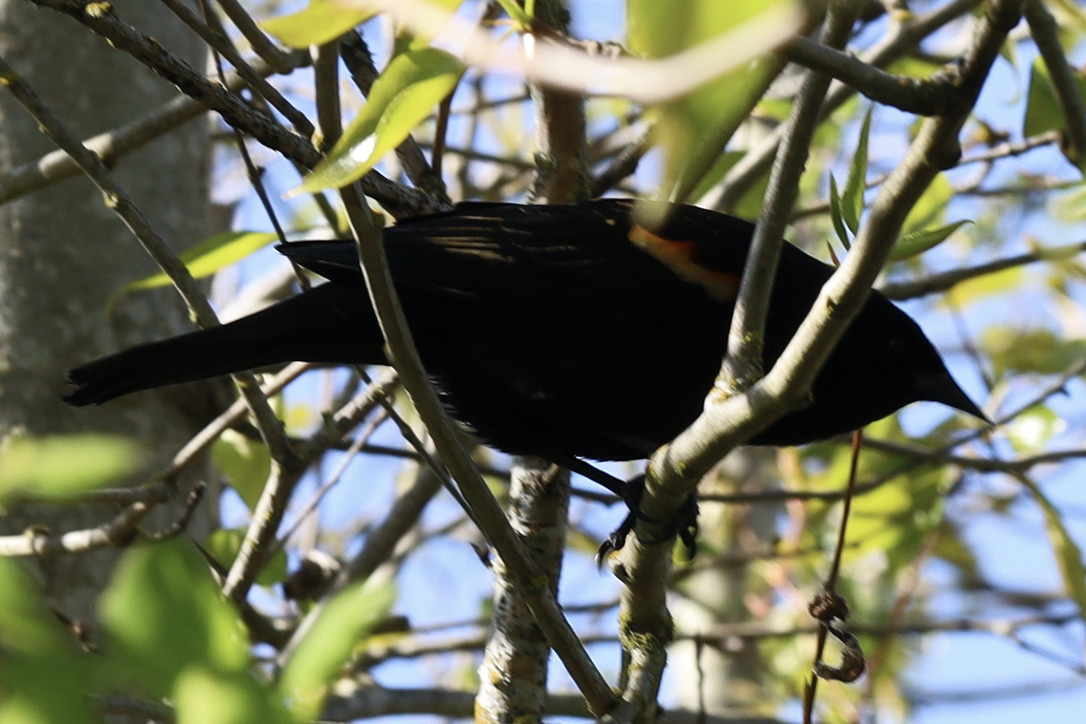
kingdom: Animalia
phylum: Chordata
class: Aves
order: Passeriformes
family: Icteridae
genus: Agelaius
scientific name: Agelaius phoeniceus
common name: Red-winged blackbird
